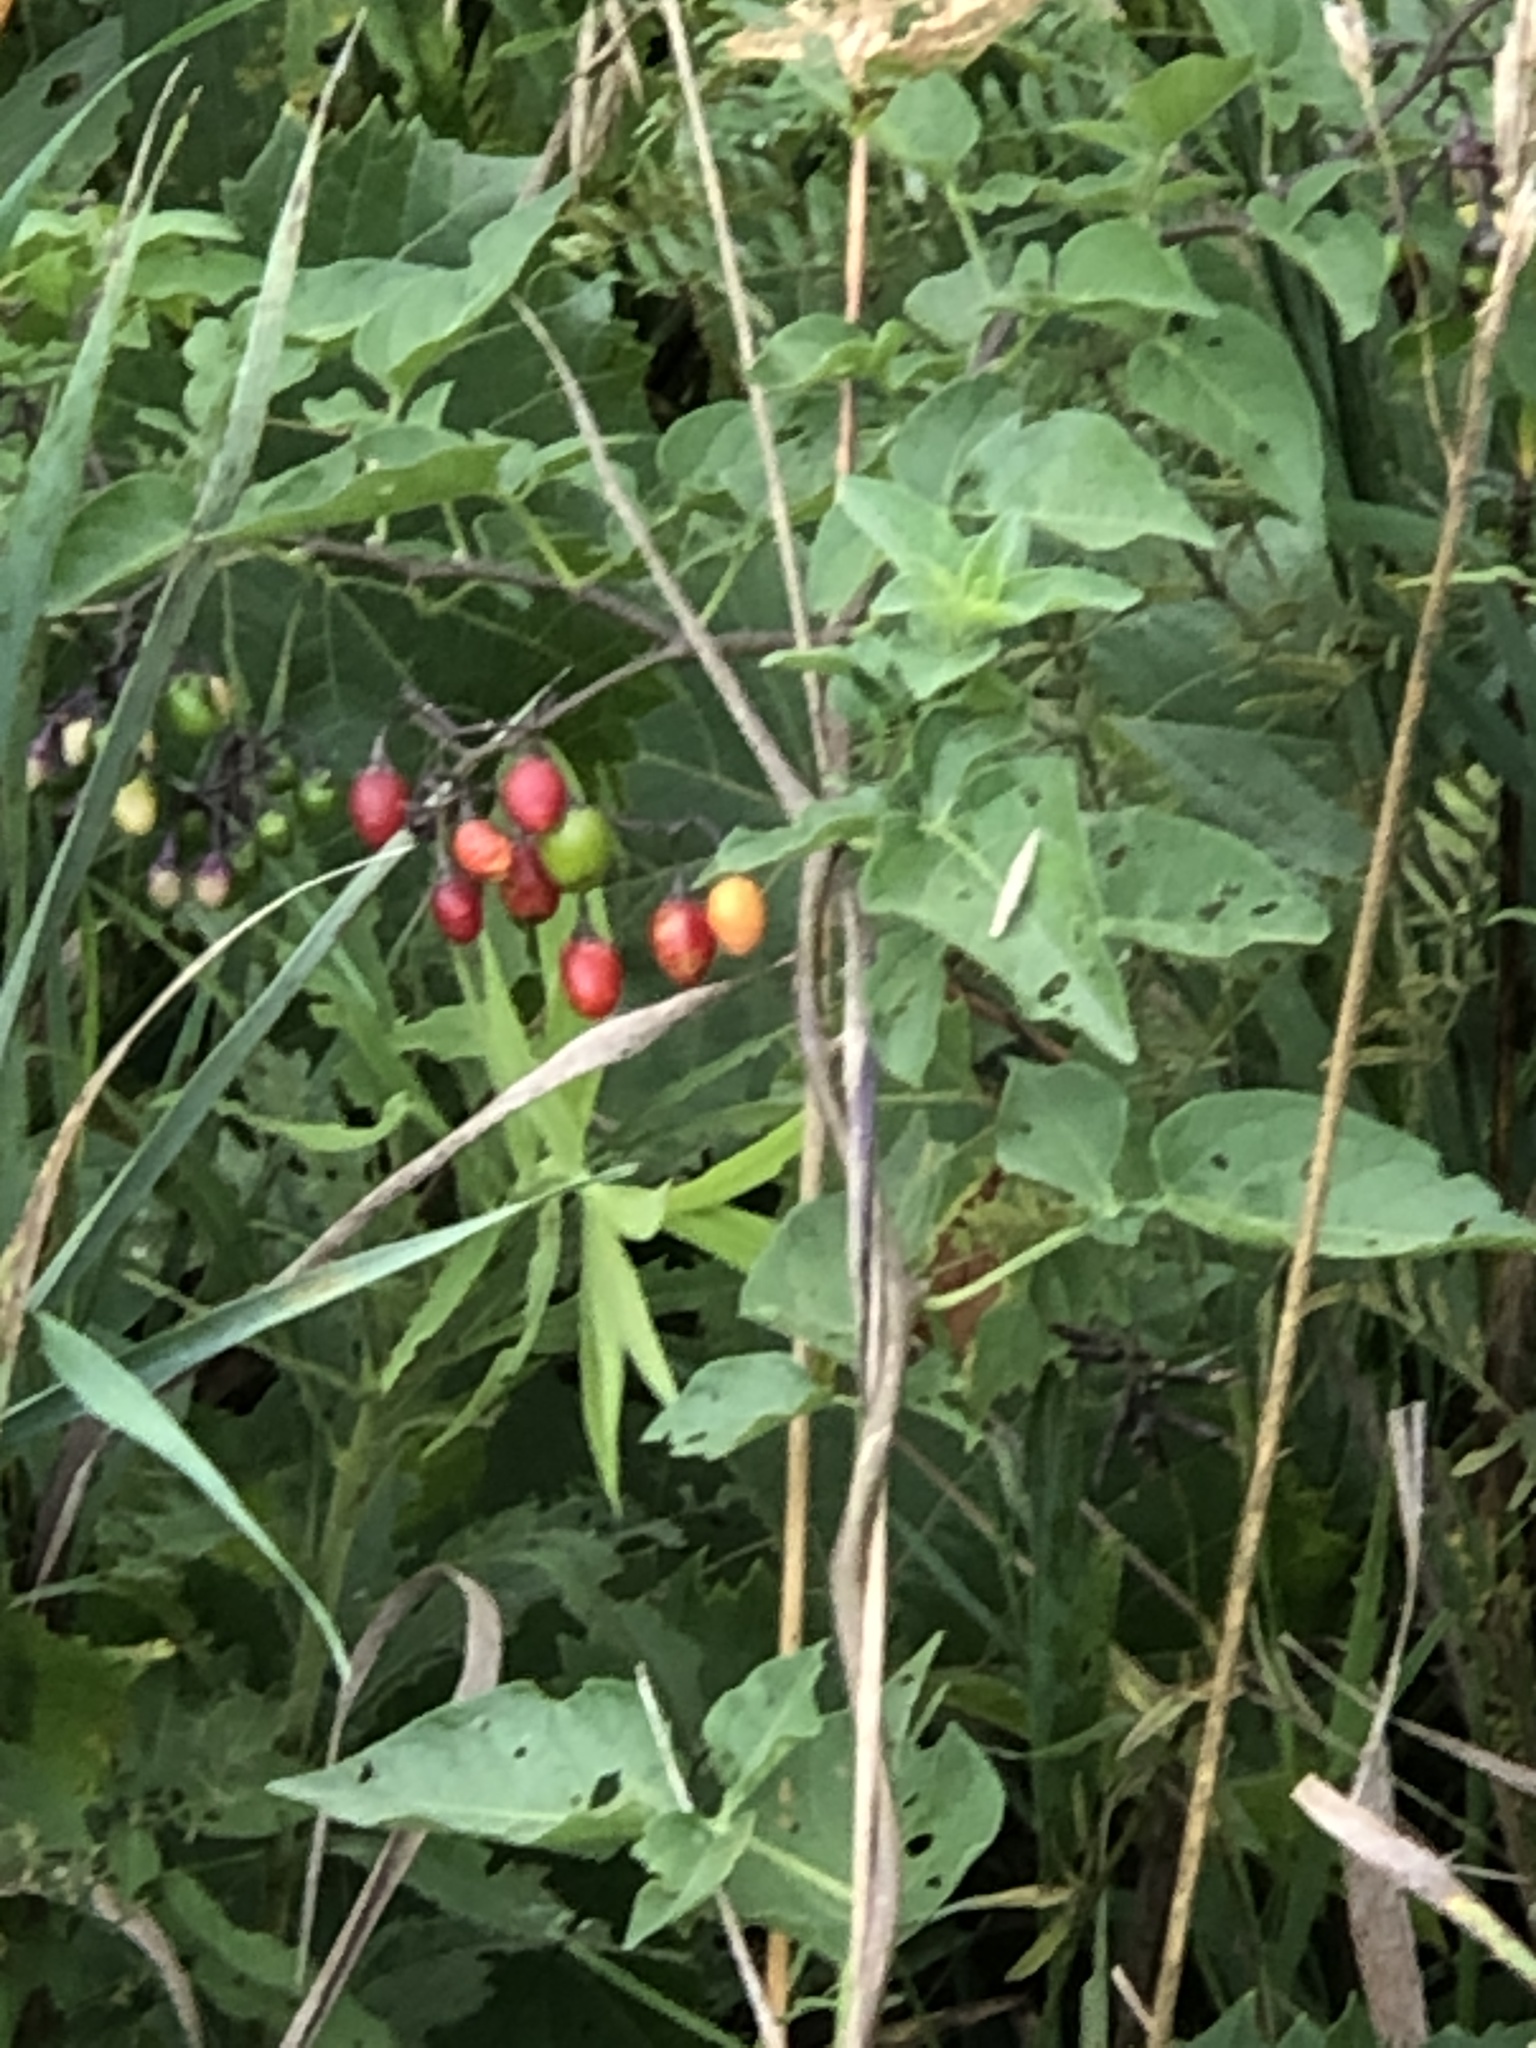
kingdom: Plantae
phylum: Tracheophyta
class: Magnoliopsida
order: Solanales
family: Solanaceae
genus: Solanum
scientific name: Solanum dulcamara
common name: Climbing nightshade
